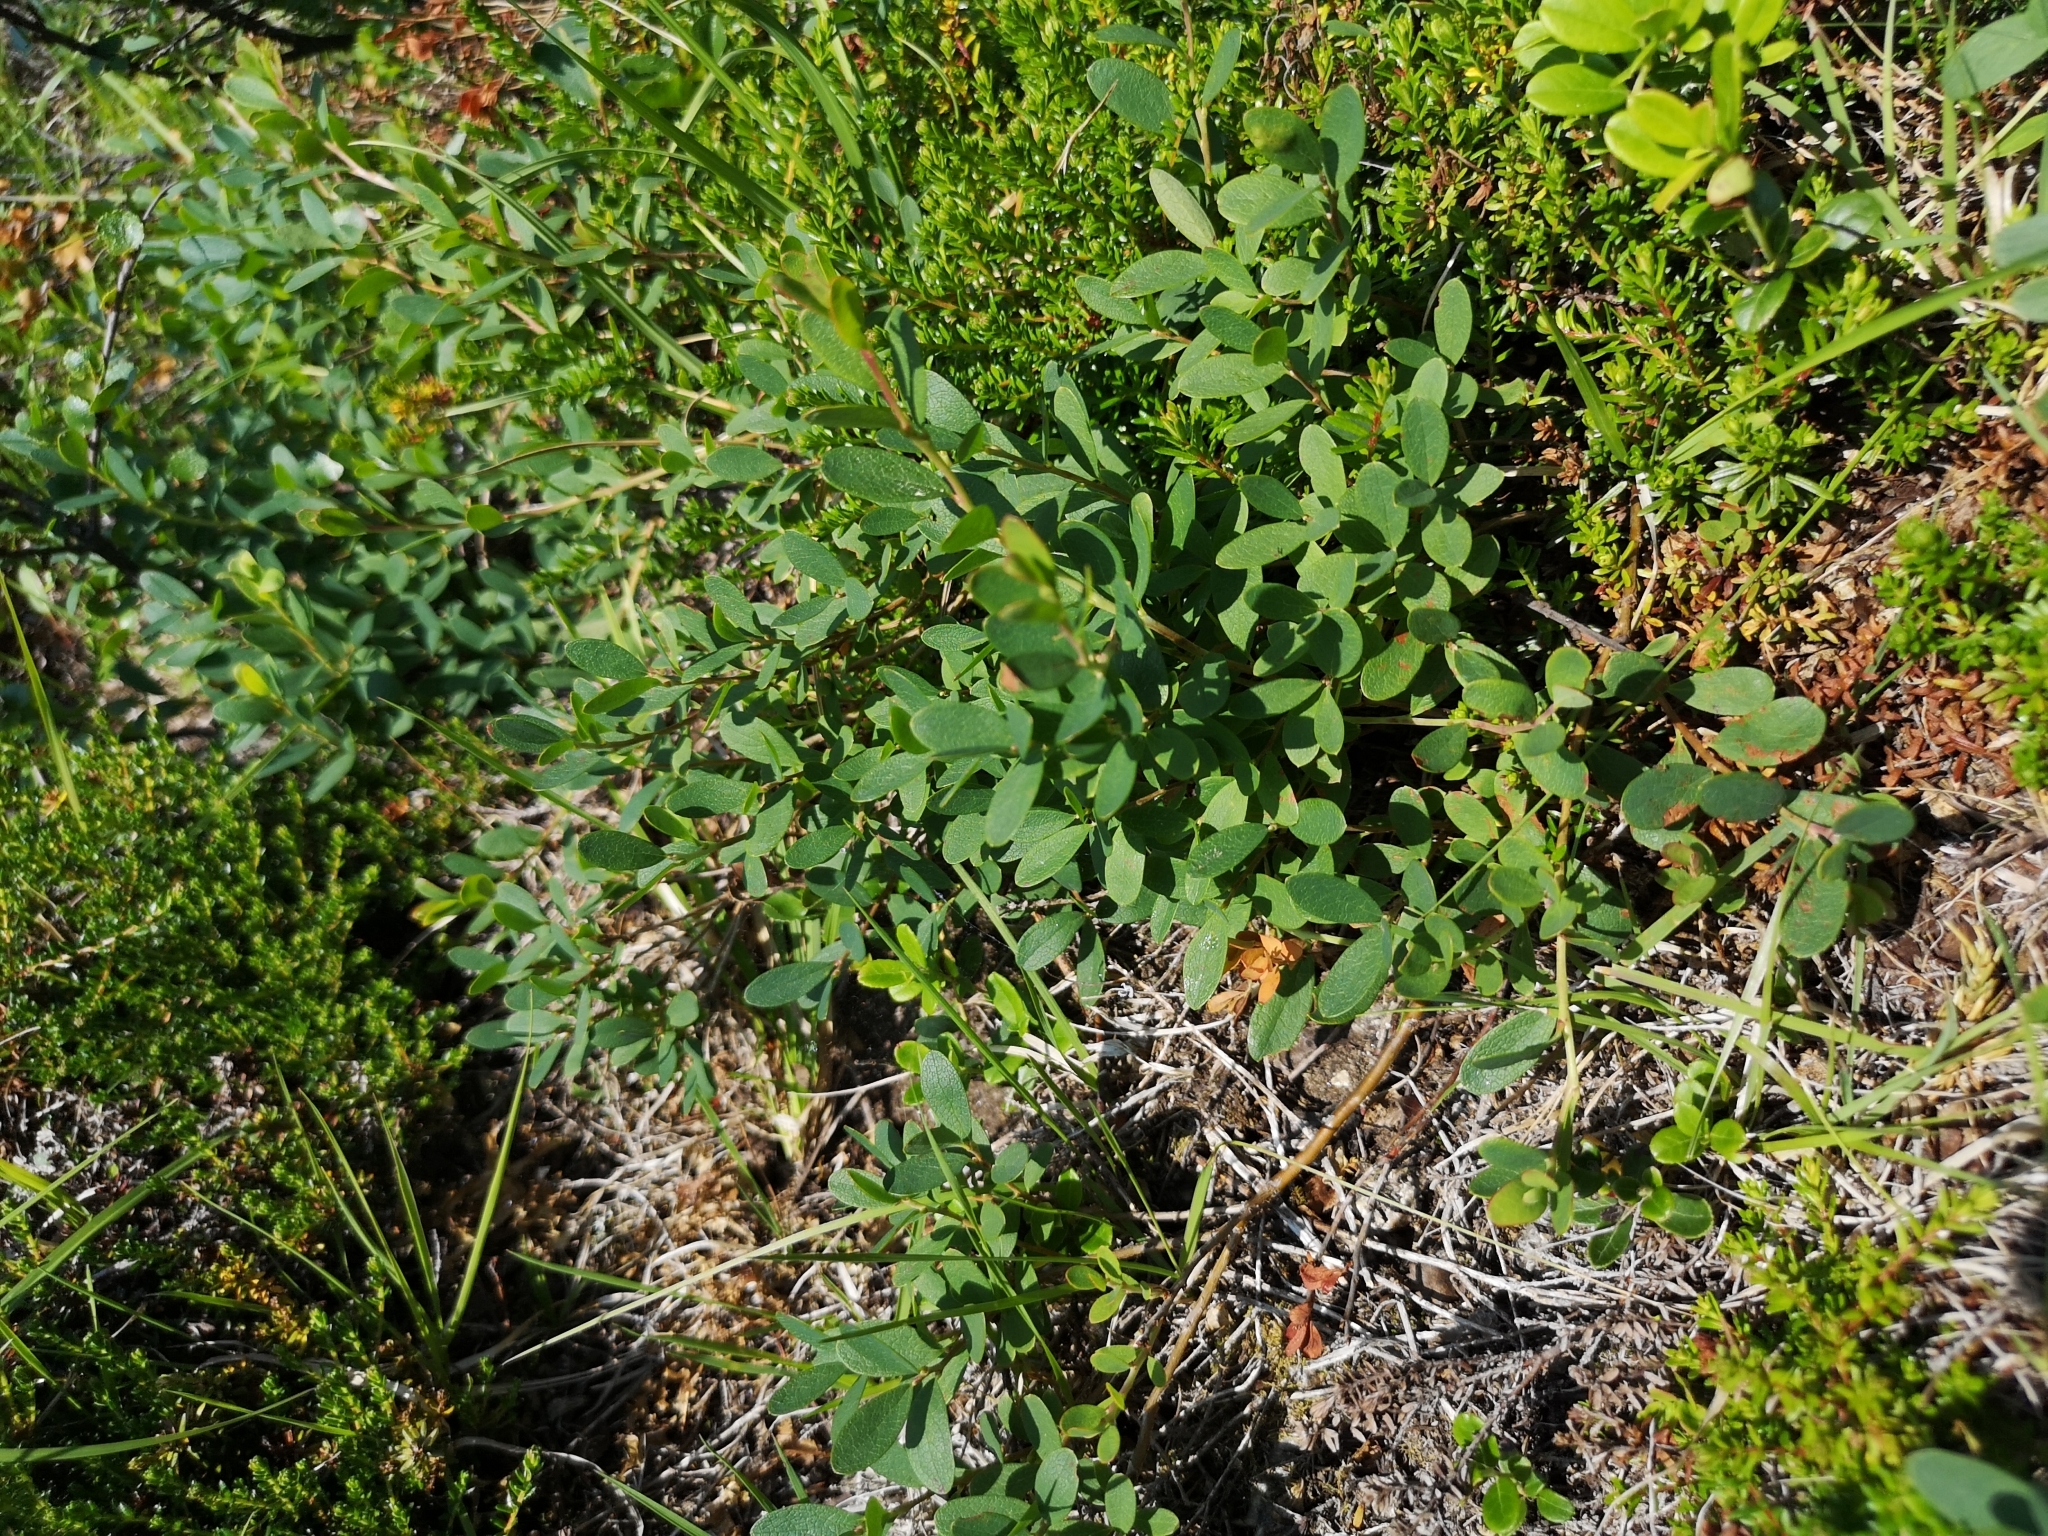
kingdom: Plantae
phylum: Tracheophyta
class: Magnoliopsida
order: Ericales
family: Ericaceae
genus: Vaccinium
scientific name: Vaccinium uliginosum
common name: Bog bilberry
